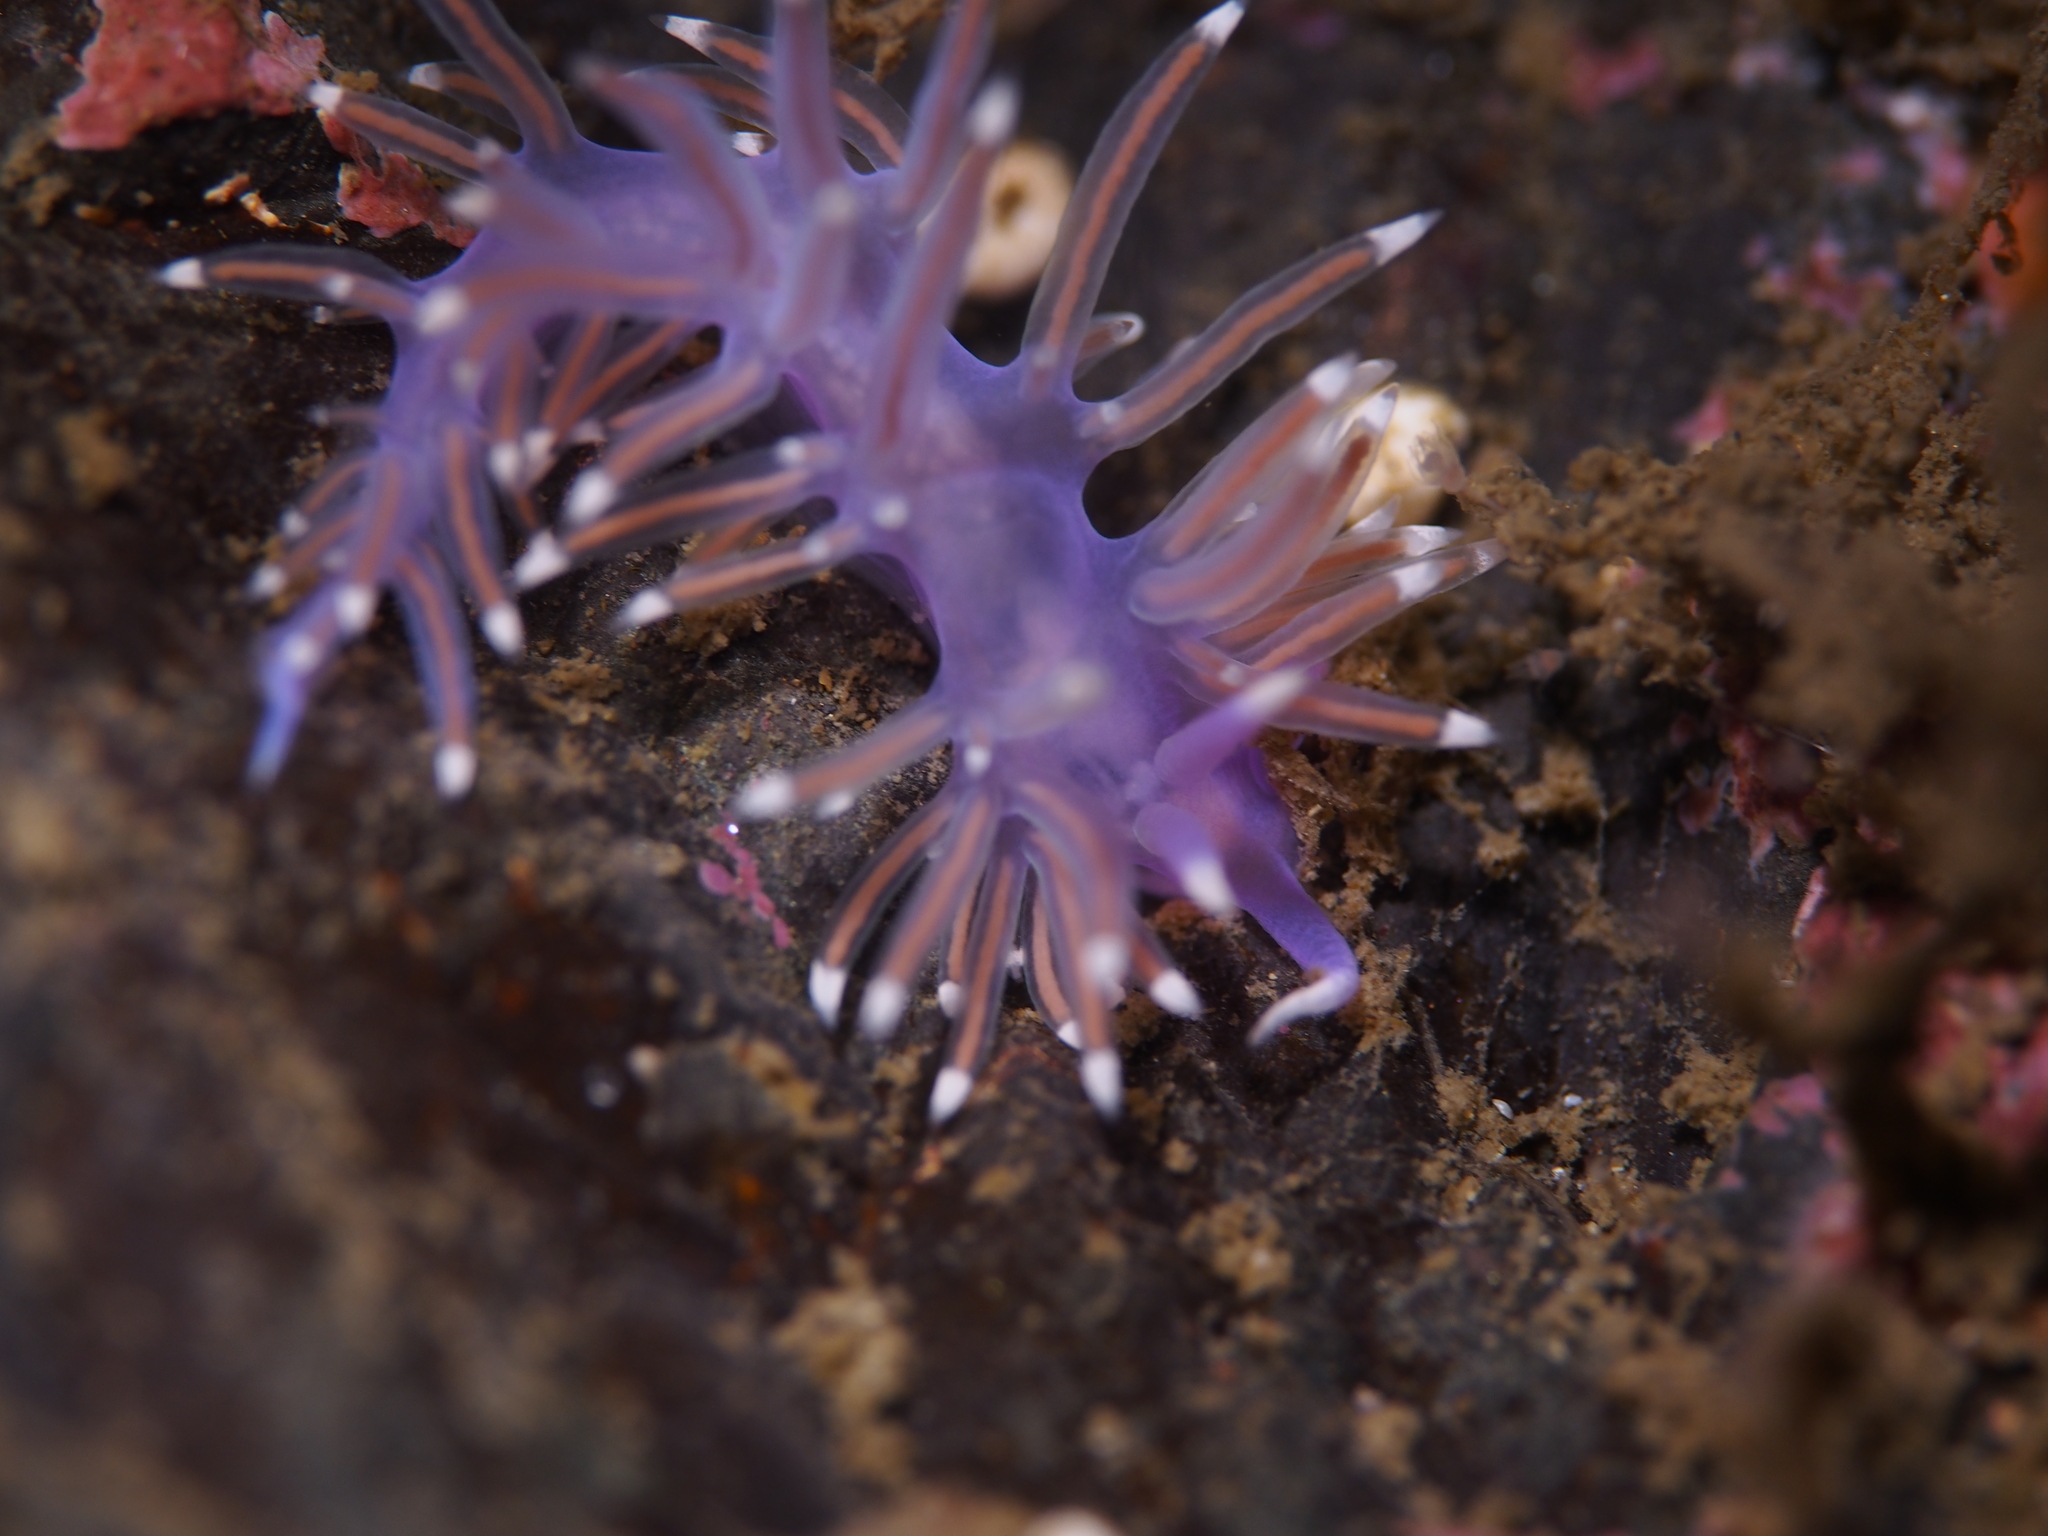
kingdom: Animalia
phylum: Mollusca
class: Gastropoda
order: Nudibranchia
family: Flabellinidae
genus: Edmundsella
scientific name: Edmundsella pedata
